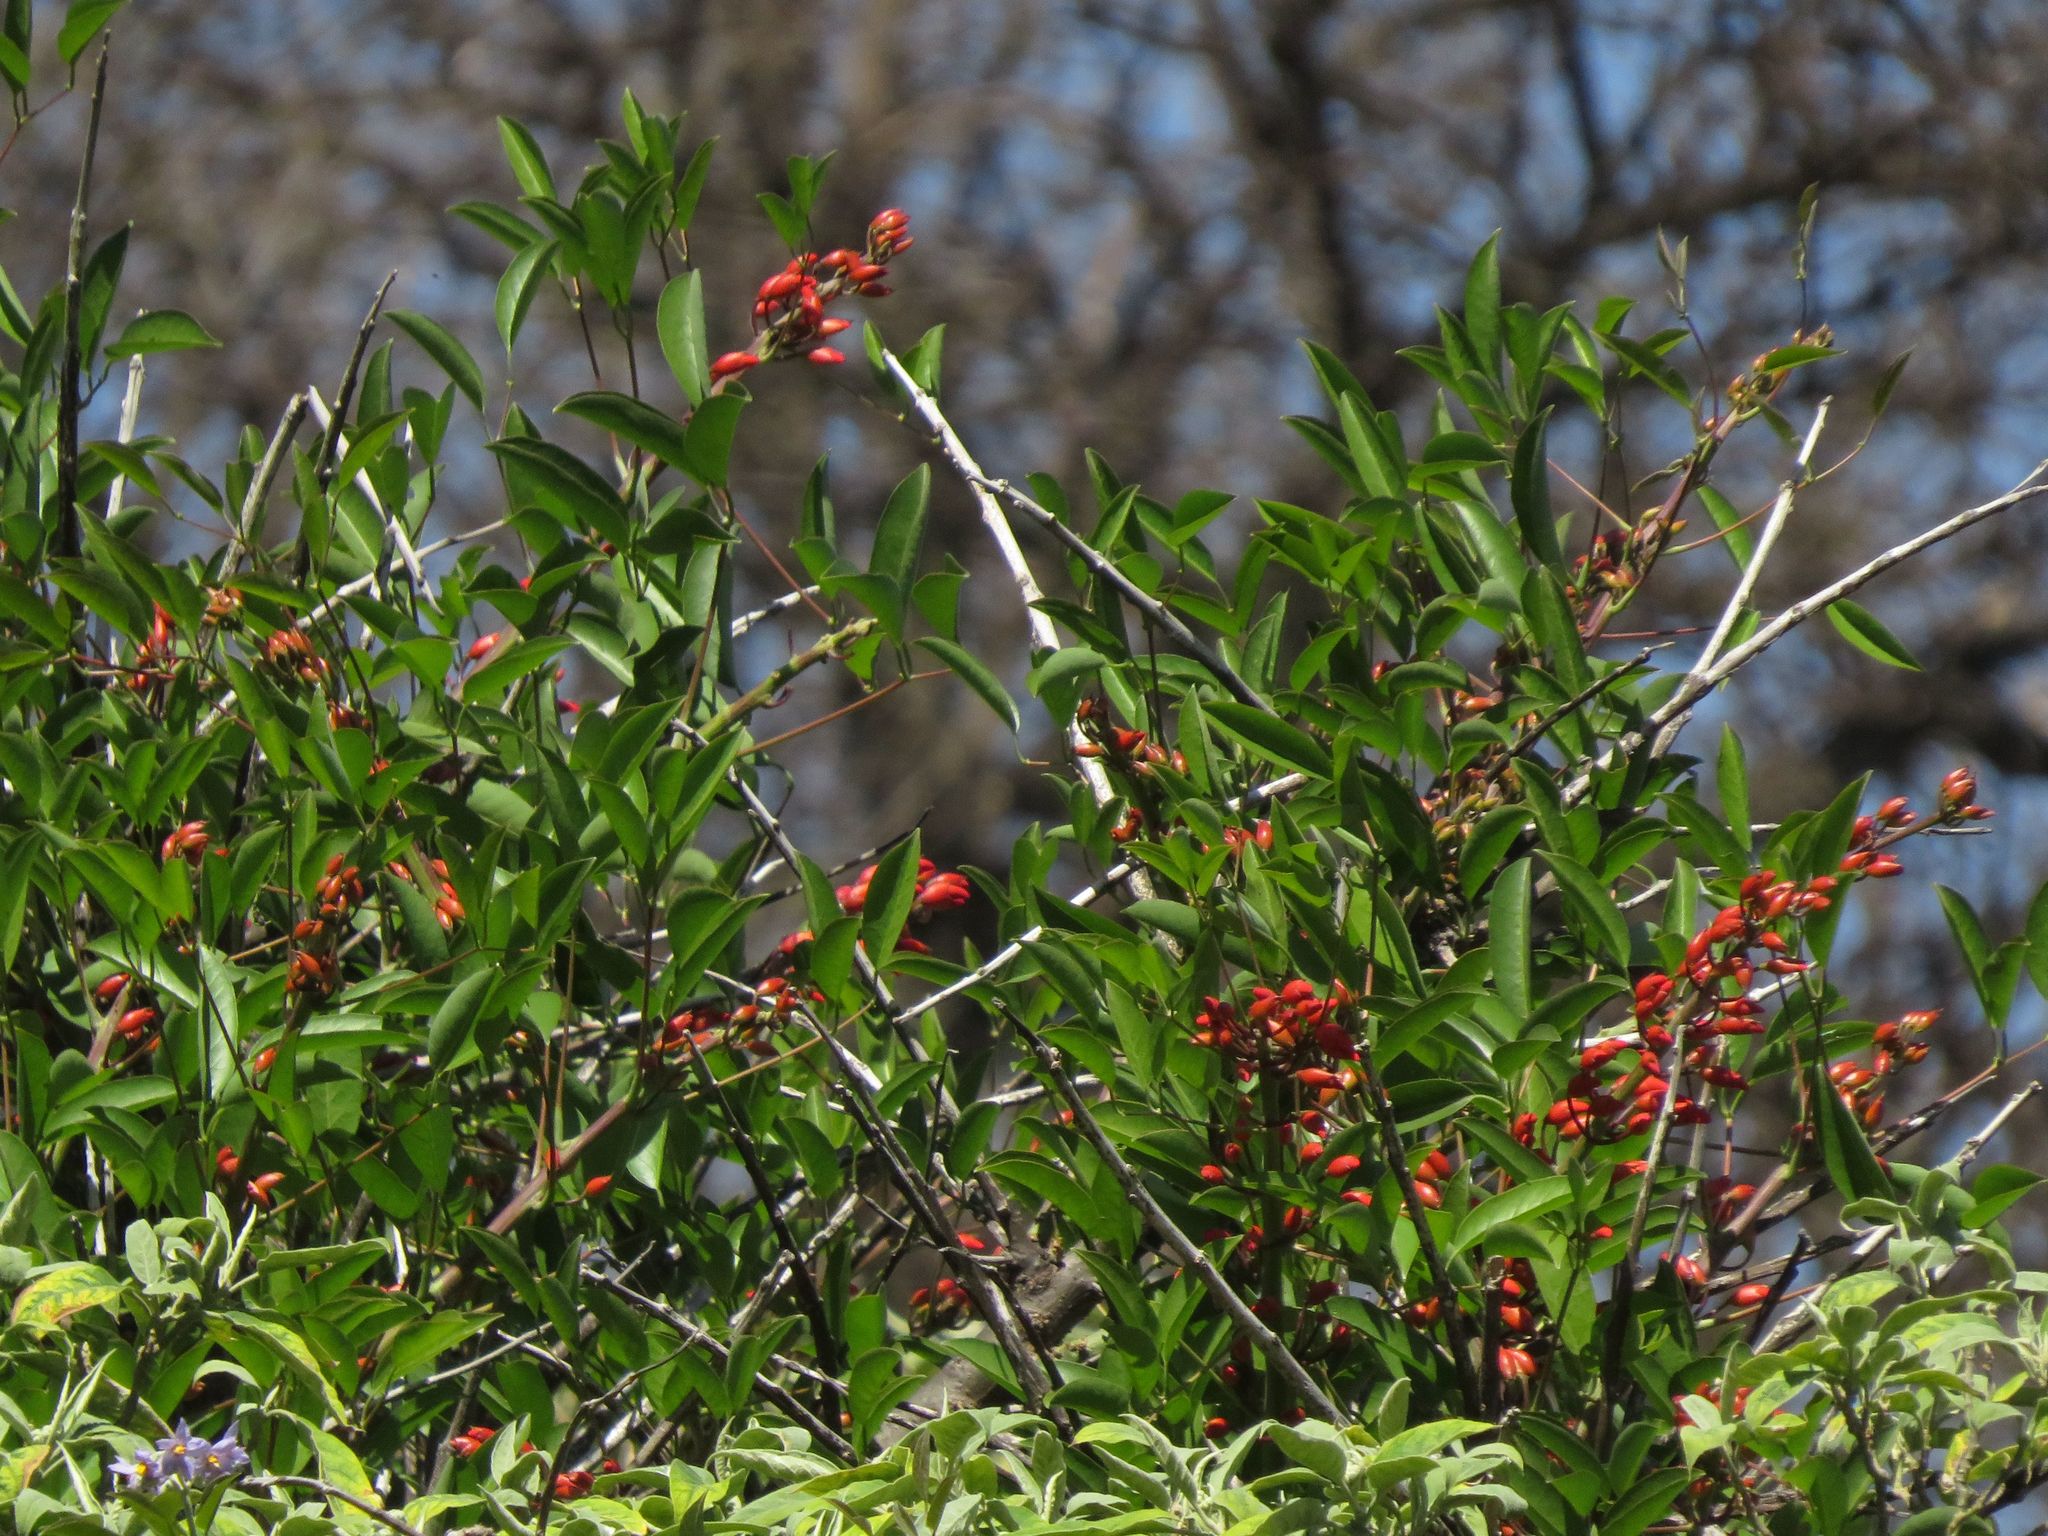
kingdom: Plantae
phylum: Tracheophyta
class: Magnoliopsida
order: Fabales
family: Fabaceae
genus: Erythrina
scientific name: Erythrina crista-galli
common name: Cockspur coral tree
